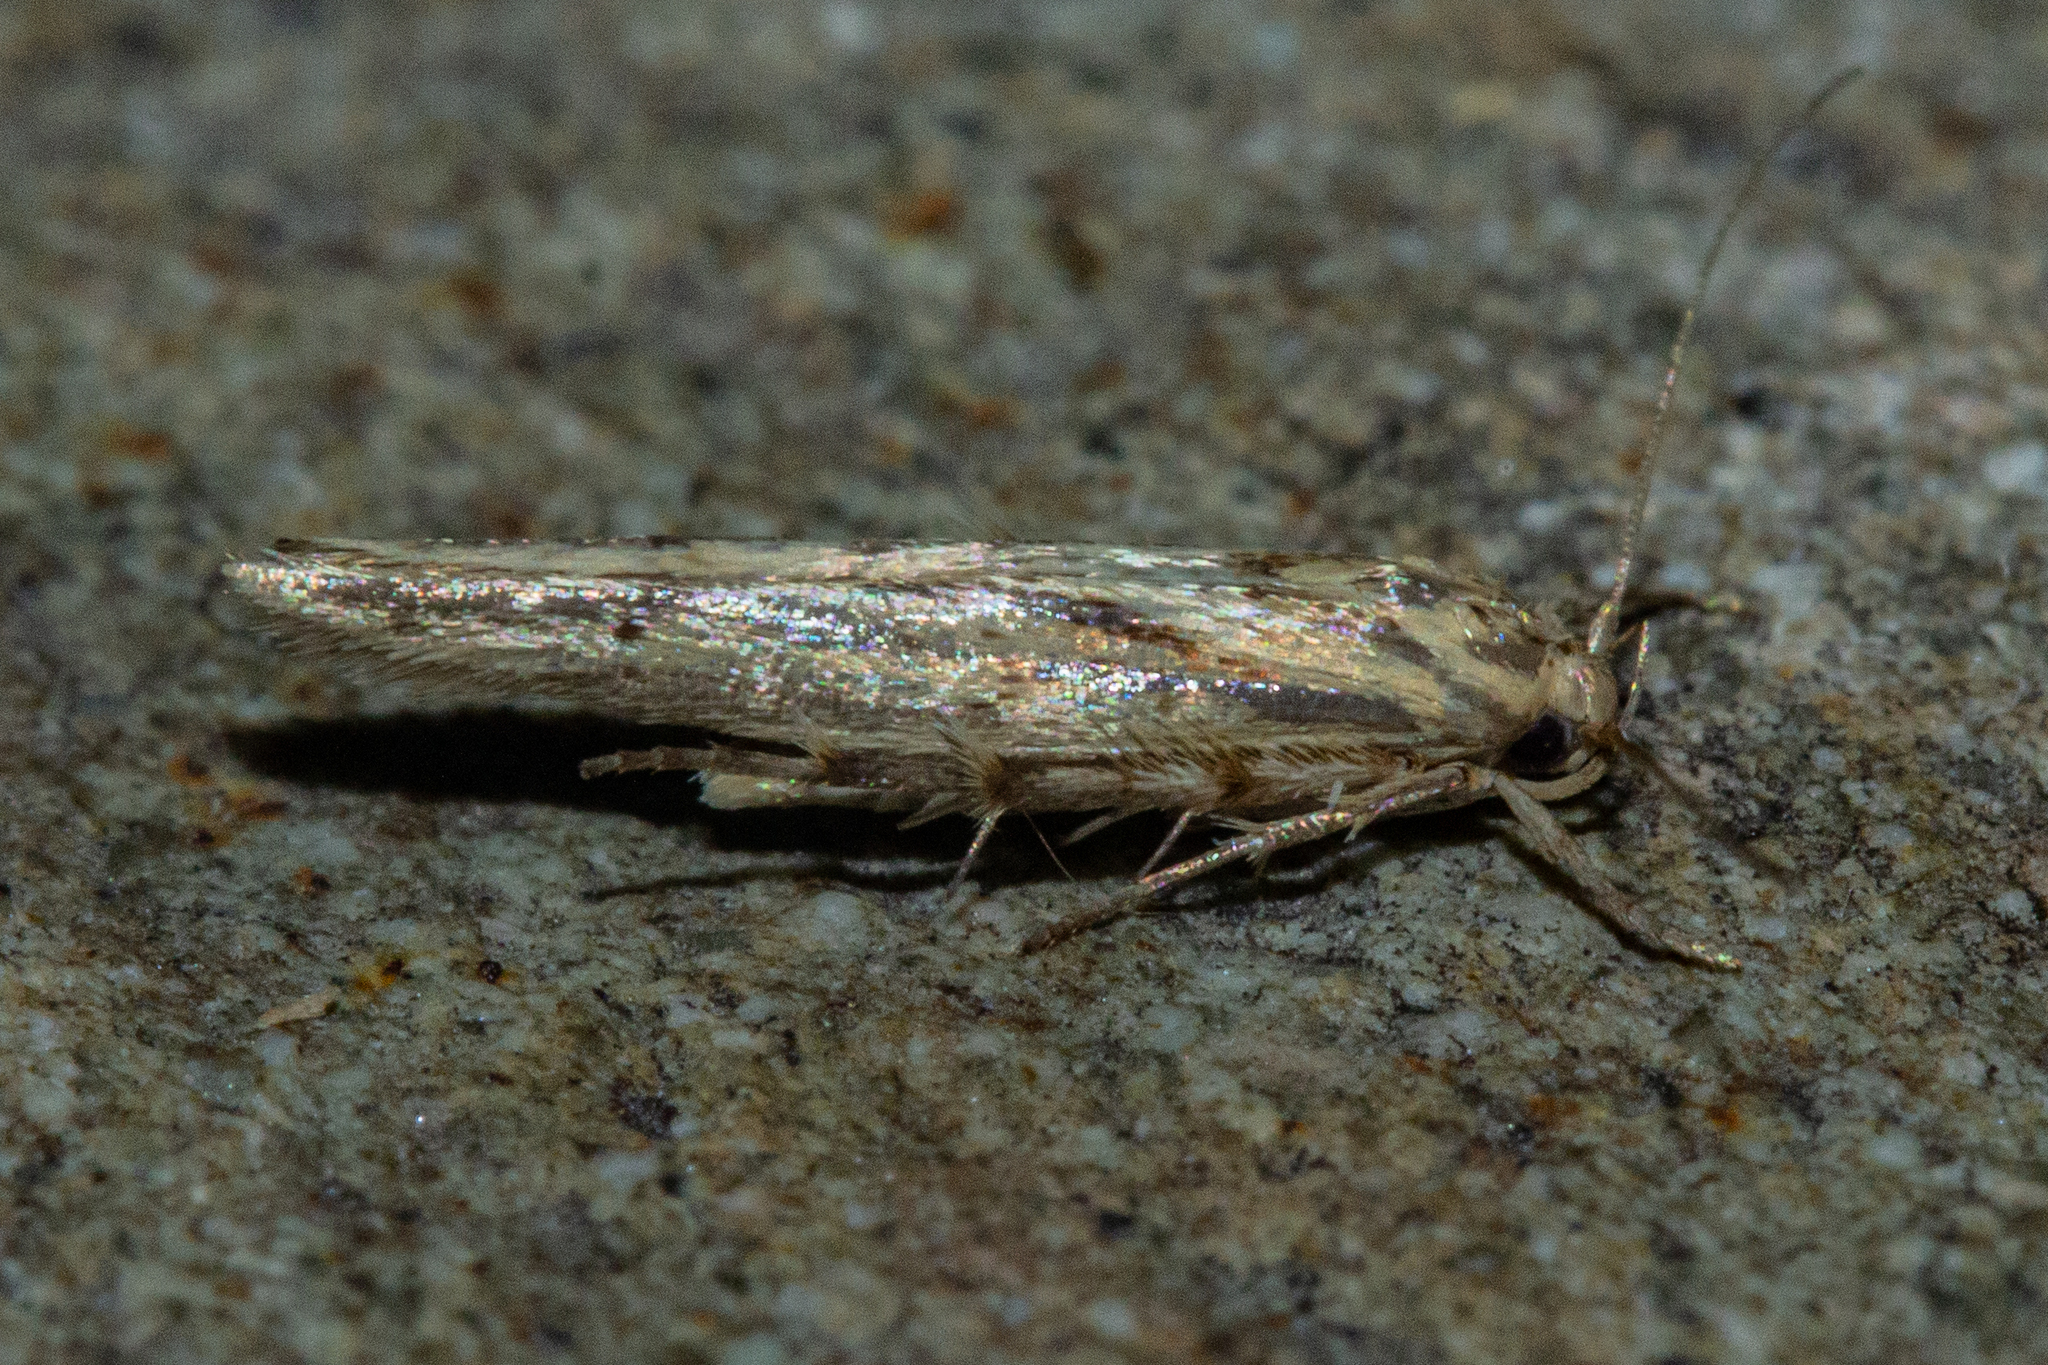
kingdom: Animalia
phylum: Arthropoda
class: Insecta
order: Lepidoptera
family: Stathmopodidae
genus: Stathmopoda
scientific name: Stathmopoda plumbiflua
